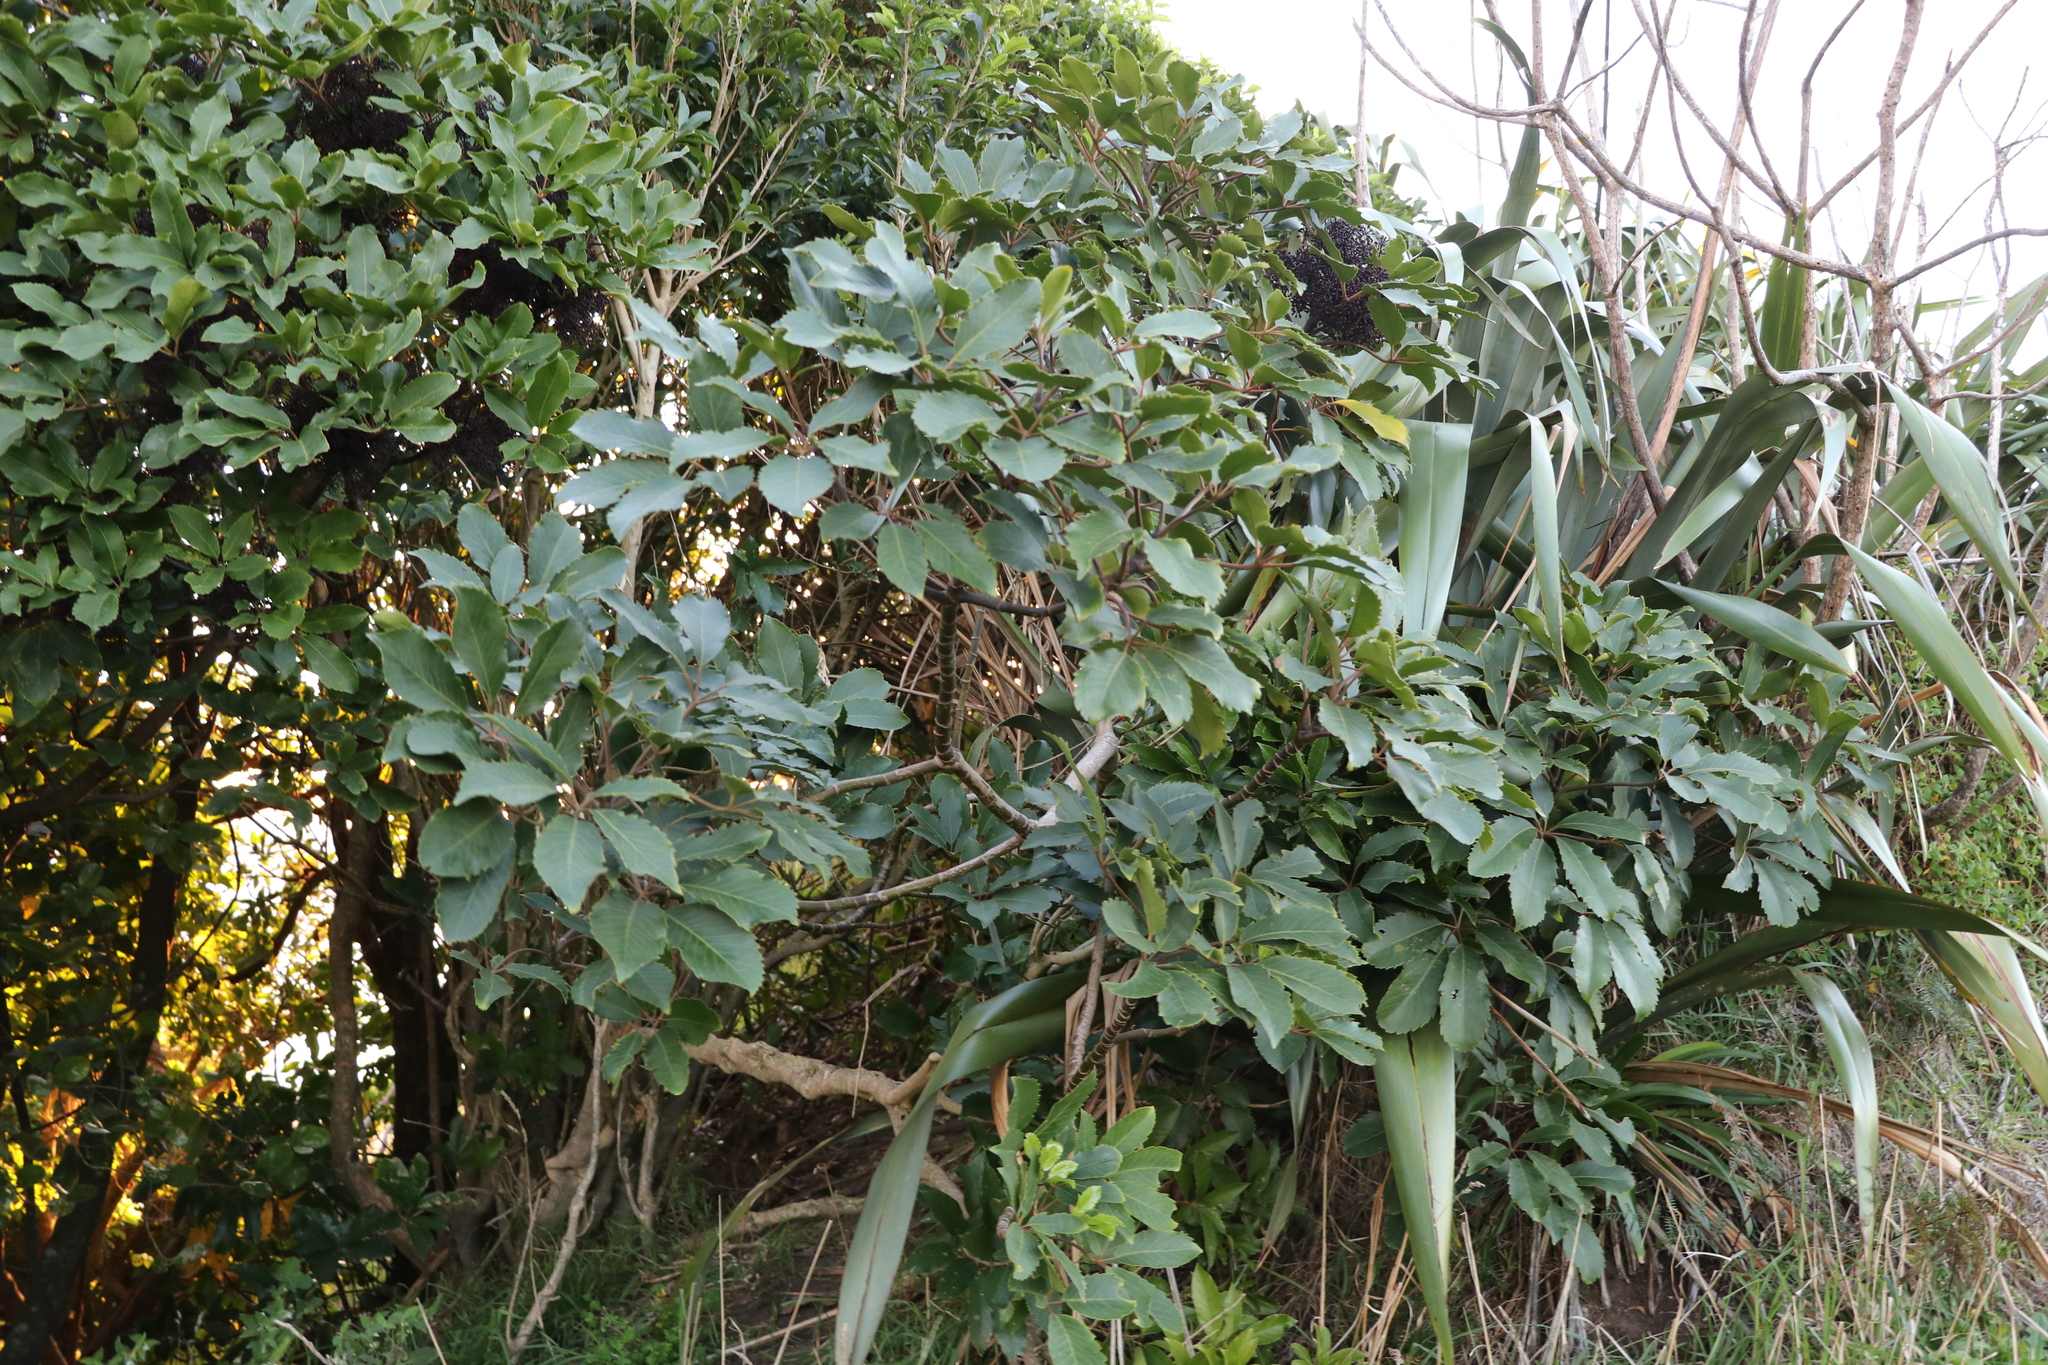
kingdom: Plantae
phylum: Tracheophyta
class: Magnoliopsida
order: Apiales
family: Araliaceae
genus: Neopanax
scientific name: Neopanax arboreus
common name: Five-fingers
